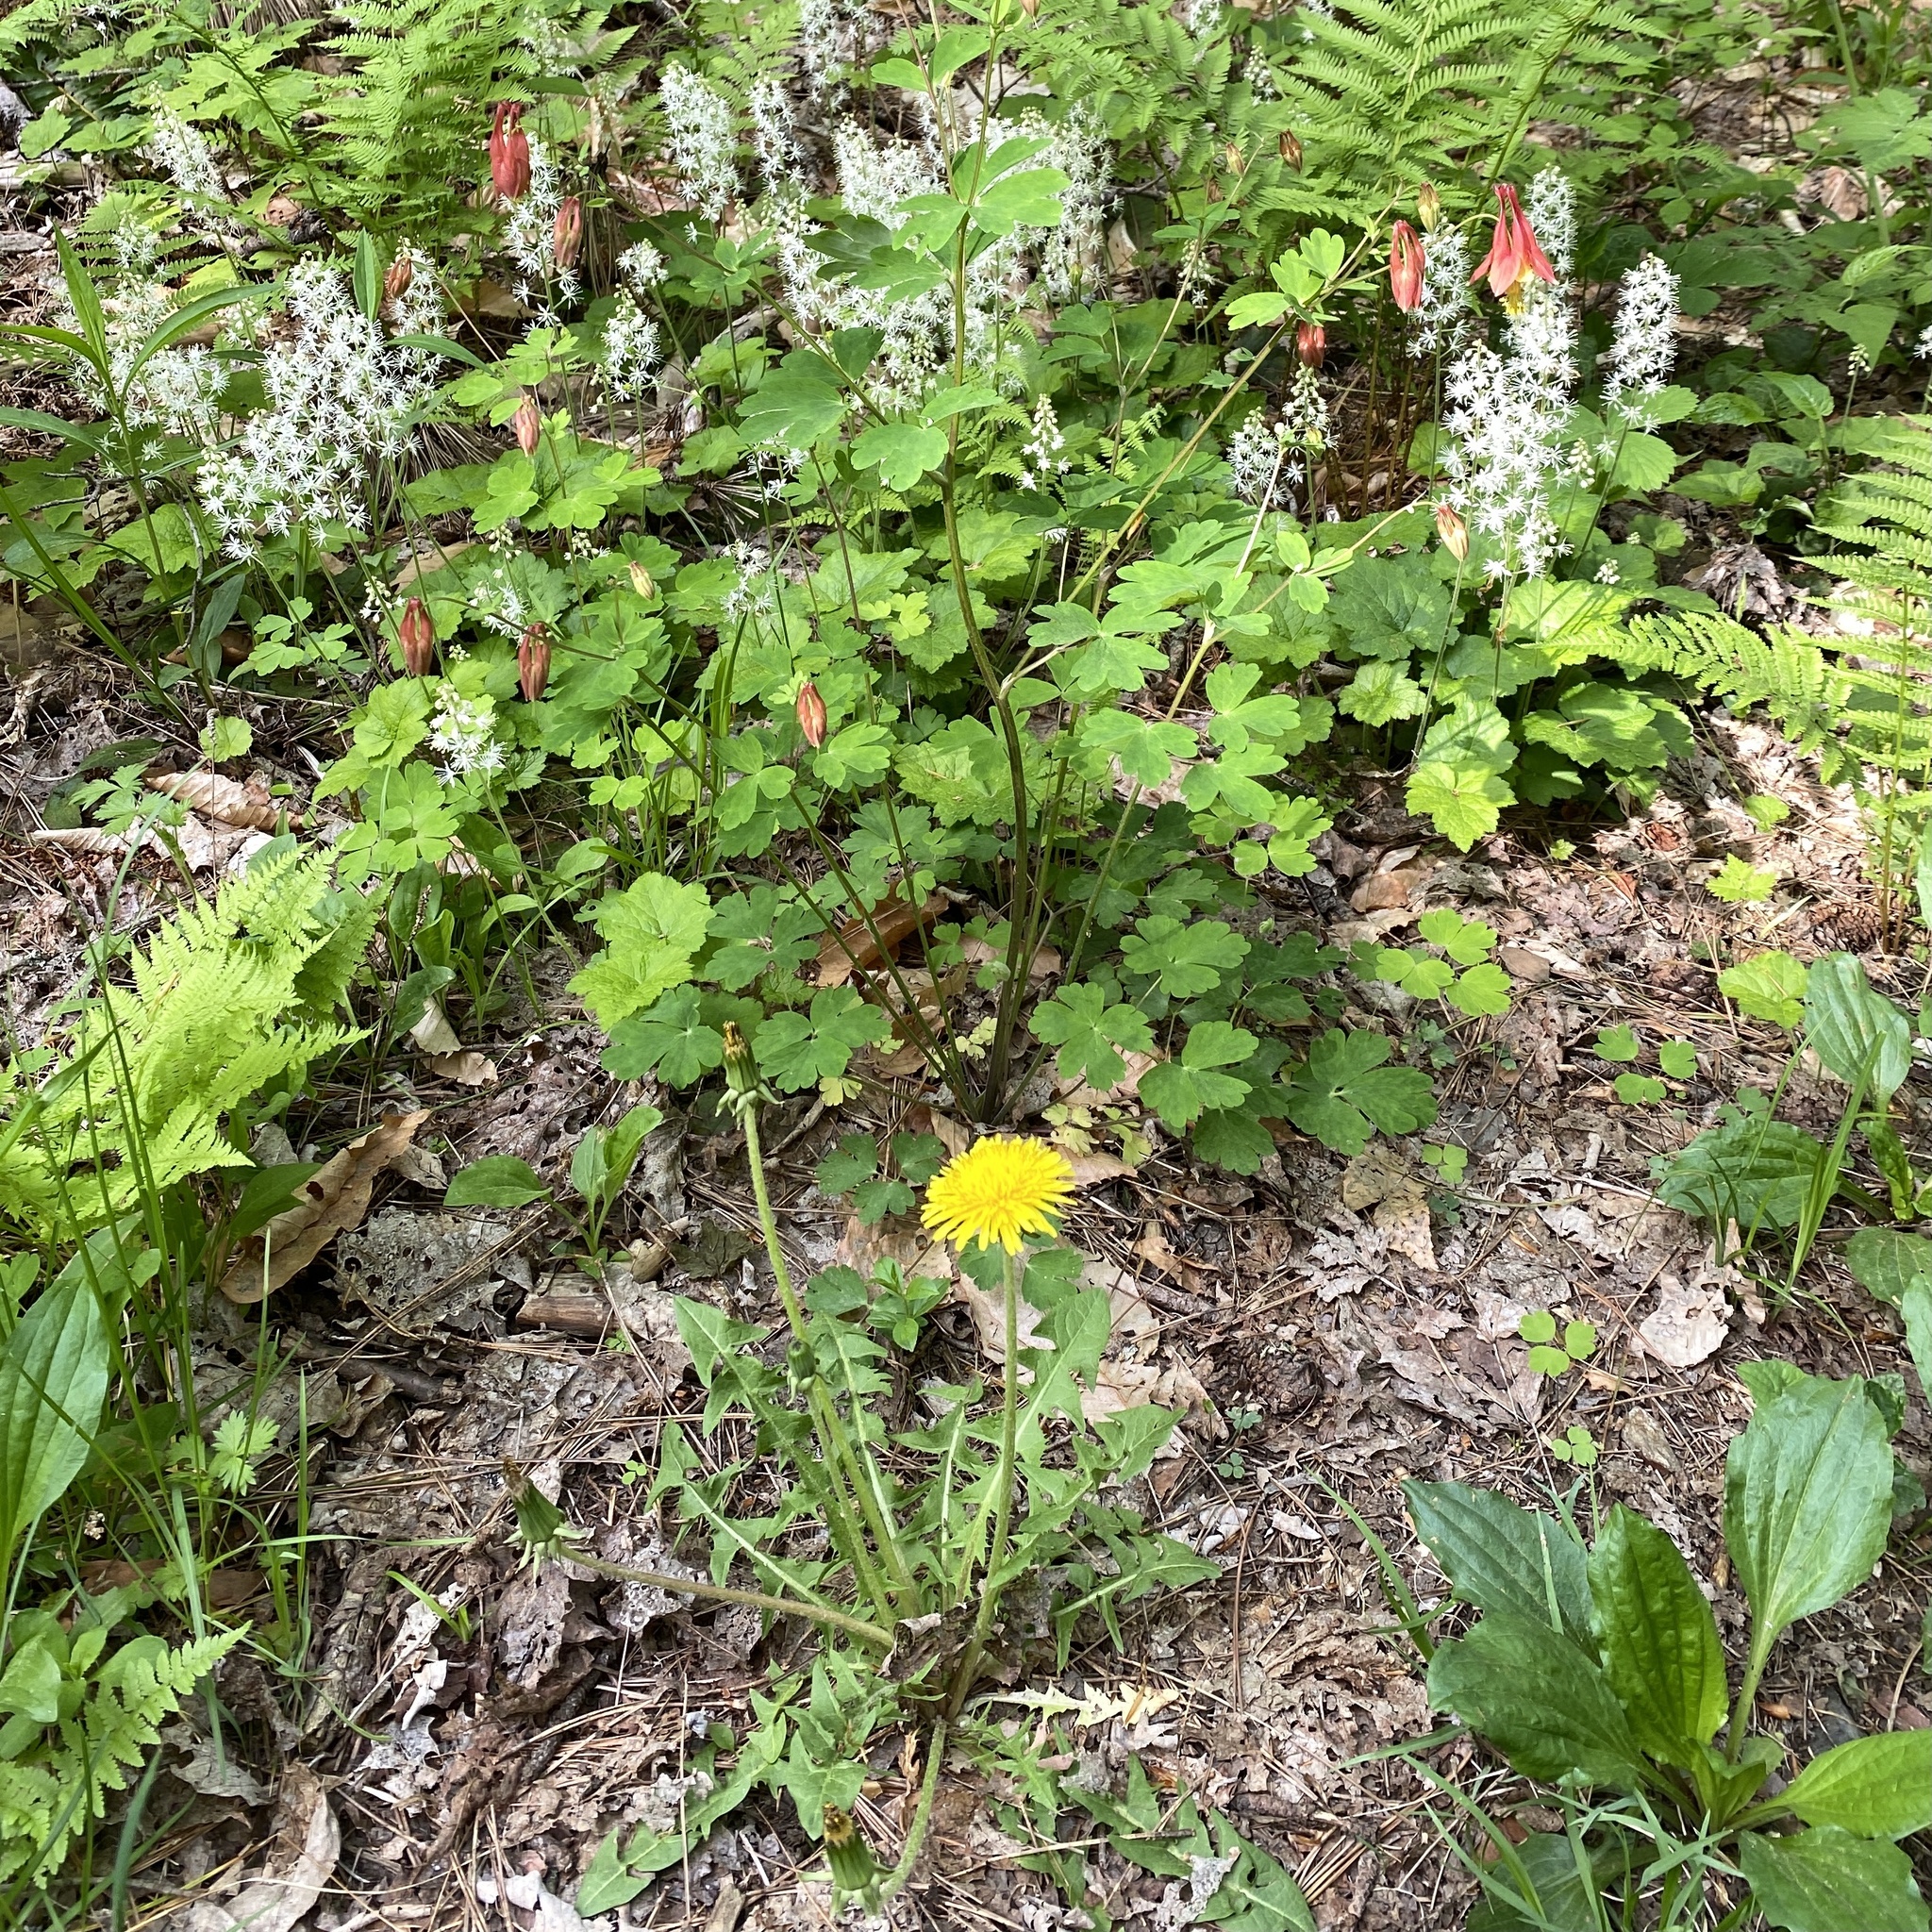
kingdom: Plantae
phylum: Tracheophyta
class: Magnoliopsida
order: Asterales
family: Asteraceae
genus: Taraxacum
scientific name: Taraxacum officinale
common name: Common dandelion
